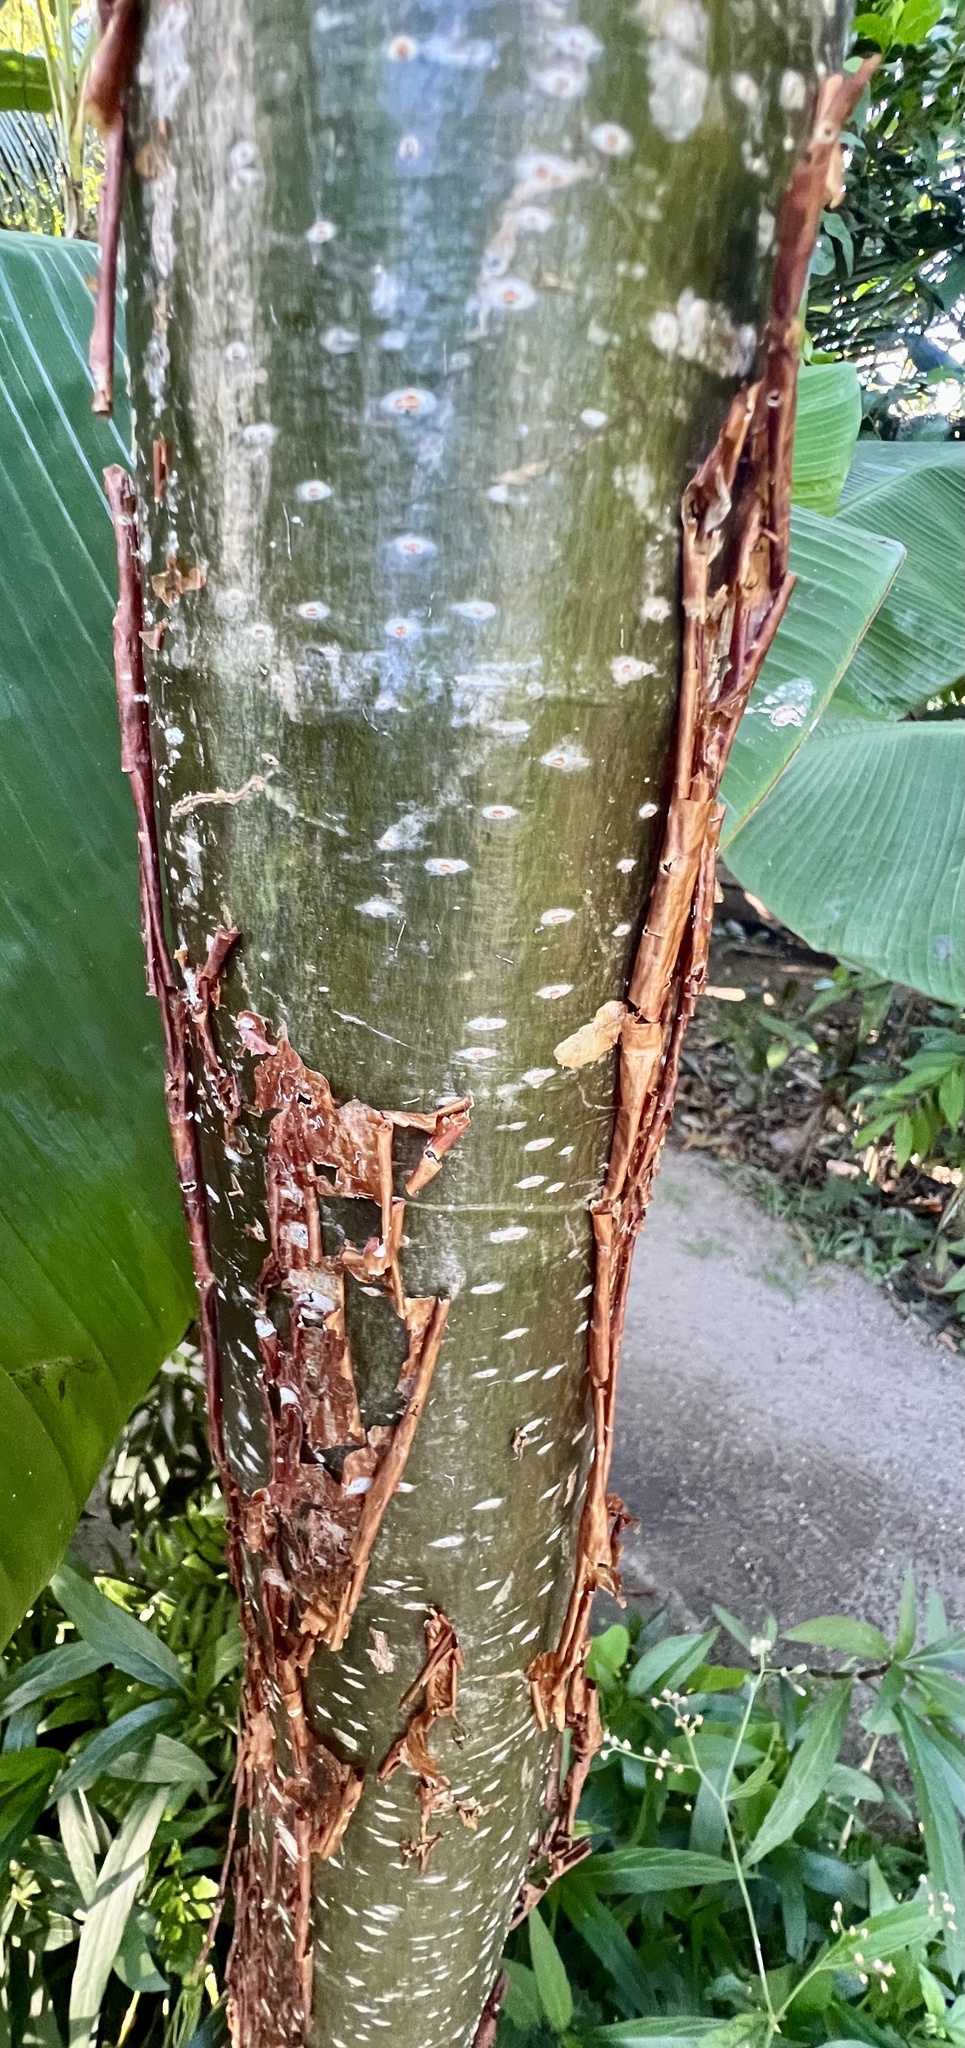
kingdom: Plantae
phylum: Tracheophyta
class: Magnoliopsida
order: Sapindales
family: Burseraceae
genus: Bursera
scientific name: Bursera simaruba
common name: Turpentine tree
